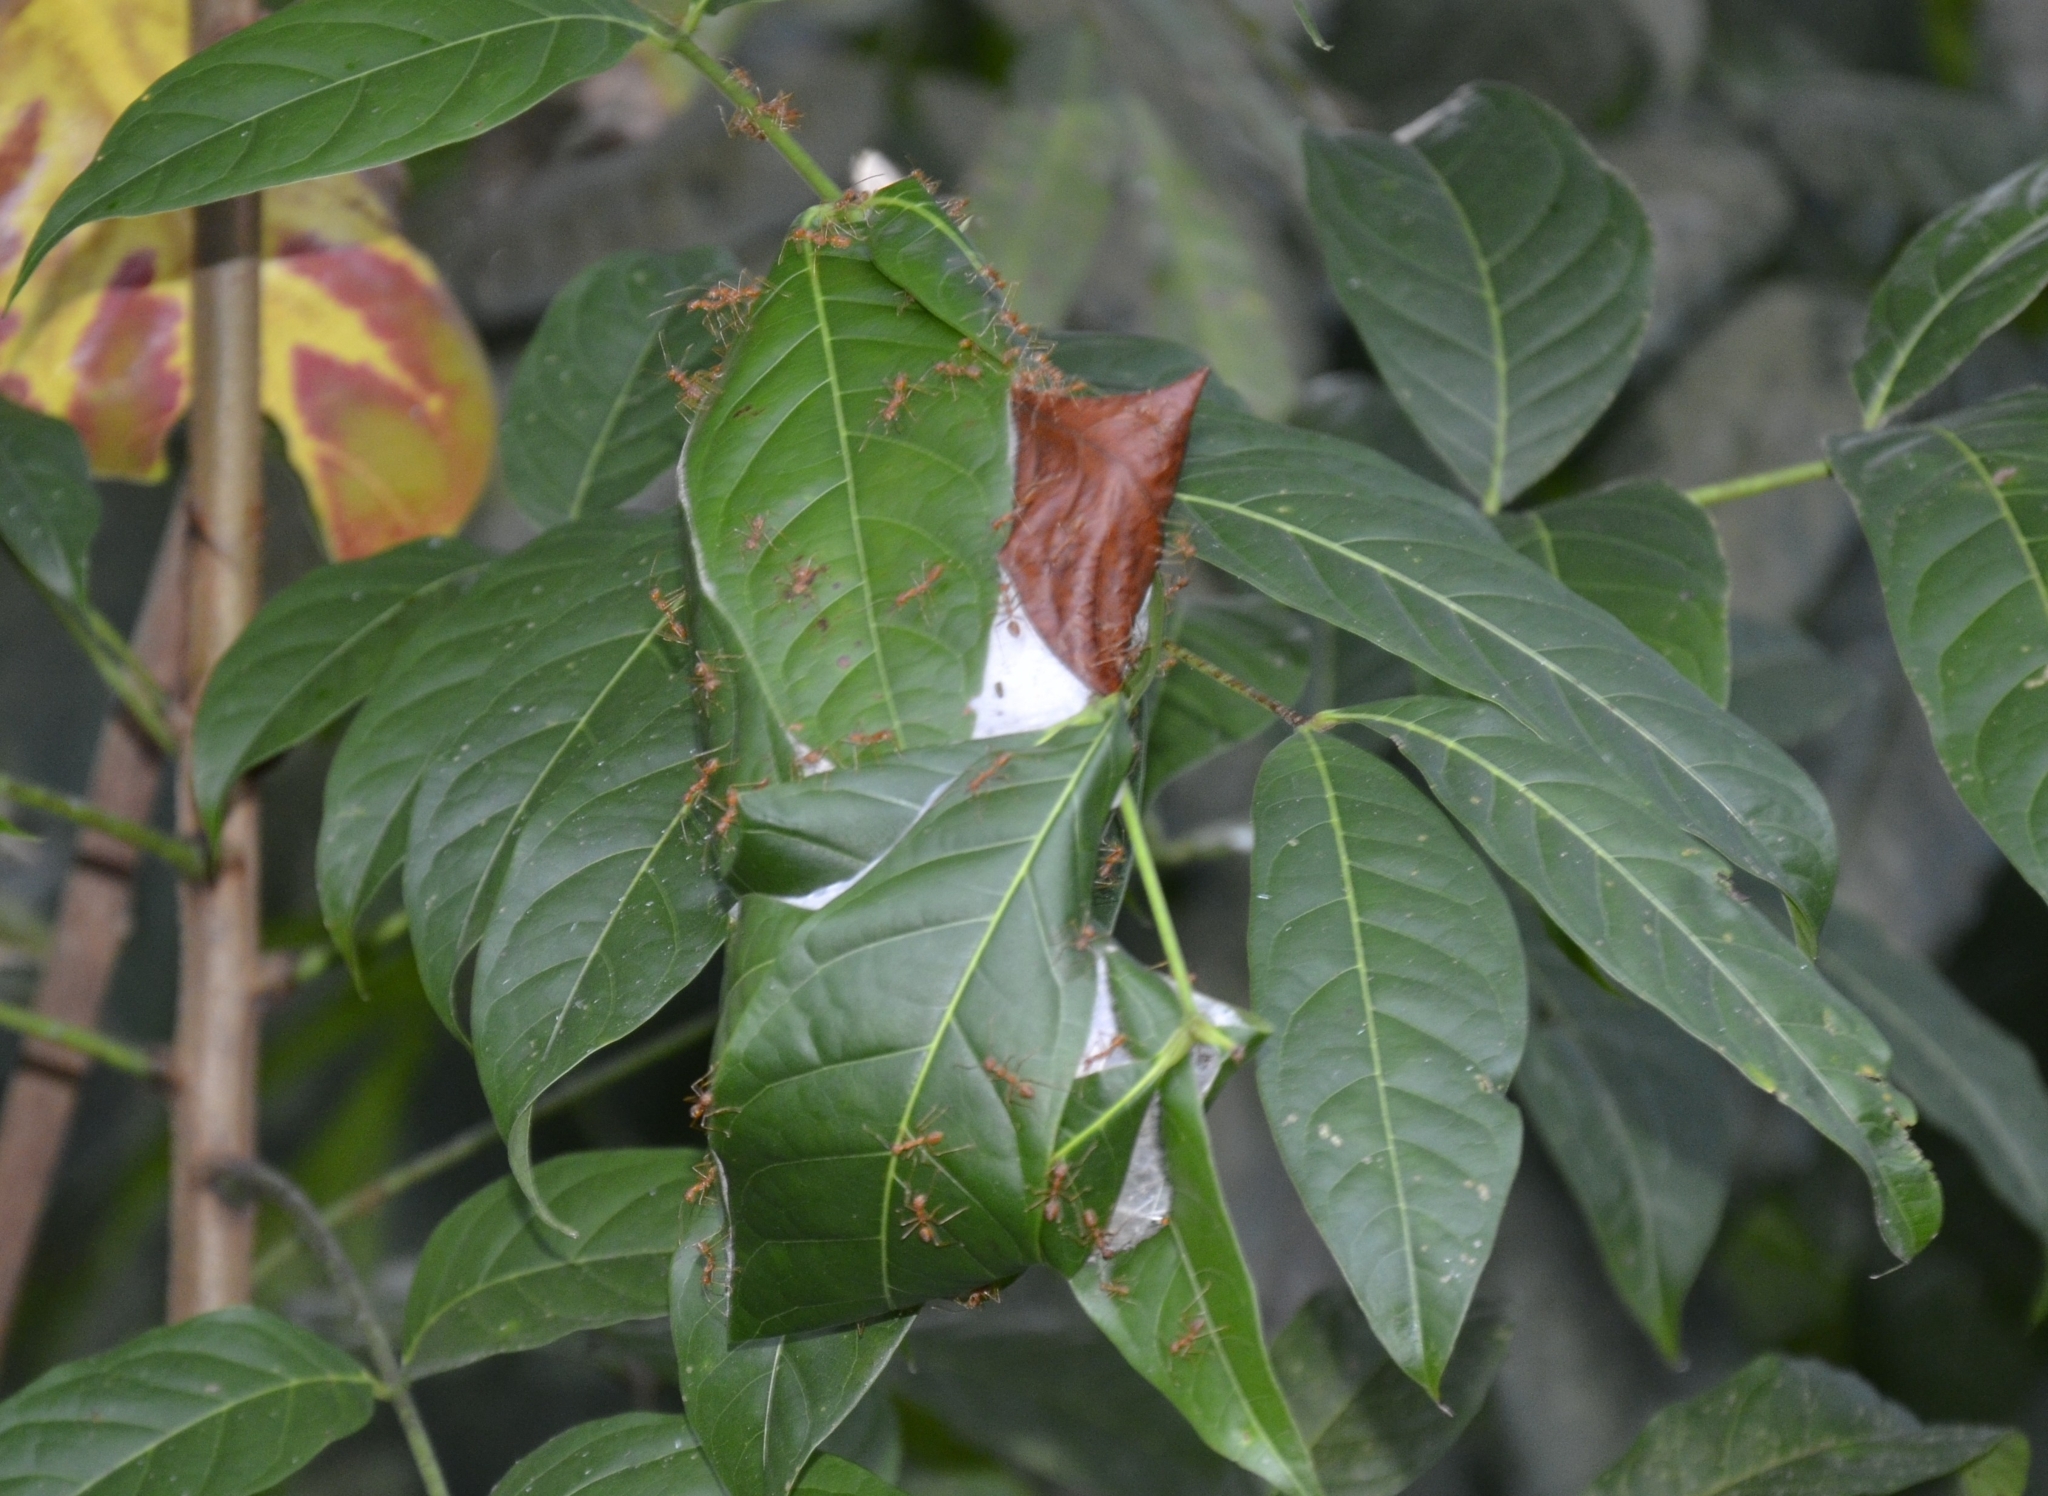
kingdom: Animalia
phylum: Arthropoda
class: Insecta
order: Hymenoptera
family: Formicidae
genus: Oecophylla
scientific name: Oecophylla smaragdina
